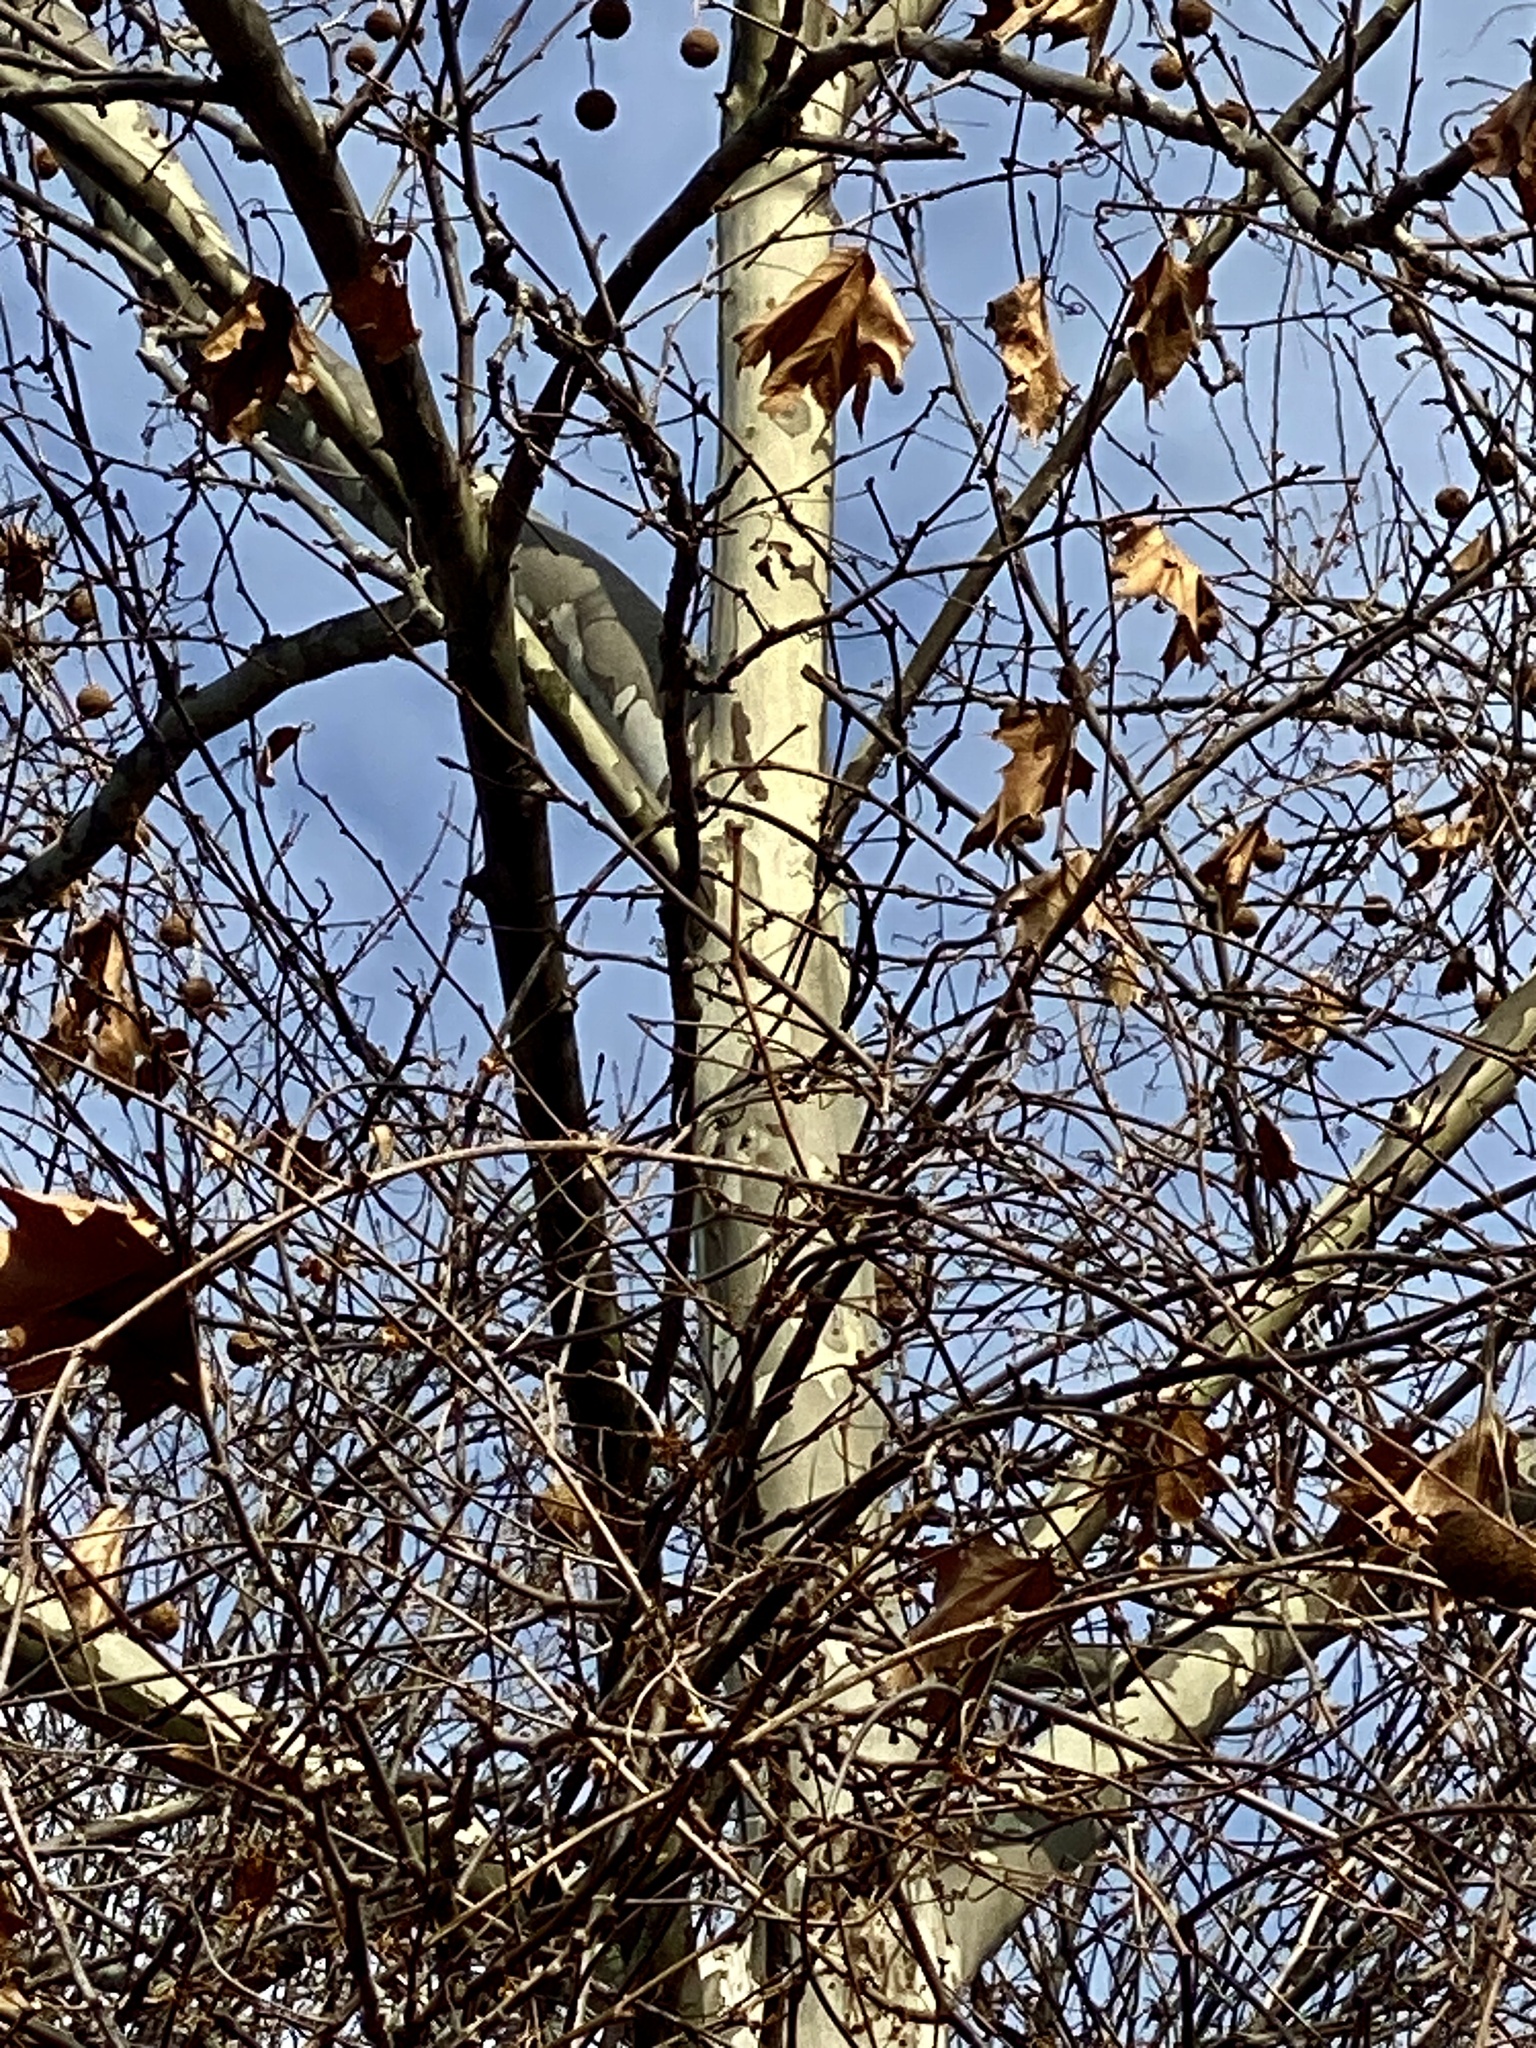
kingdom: Plantae
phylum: Tracheophyta
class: Magnoliopsida
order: Proteales
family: Platanaceae
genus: Platanus
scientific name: Platanus occidentalis
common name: American sycamore
